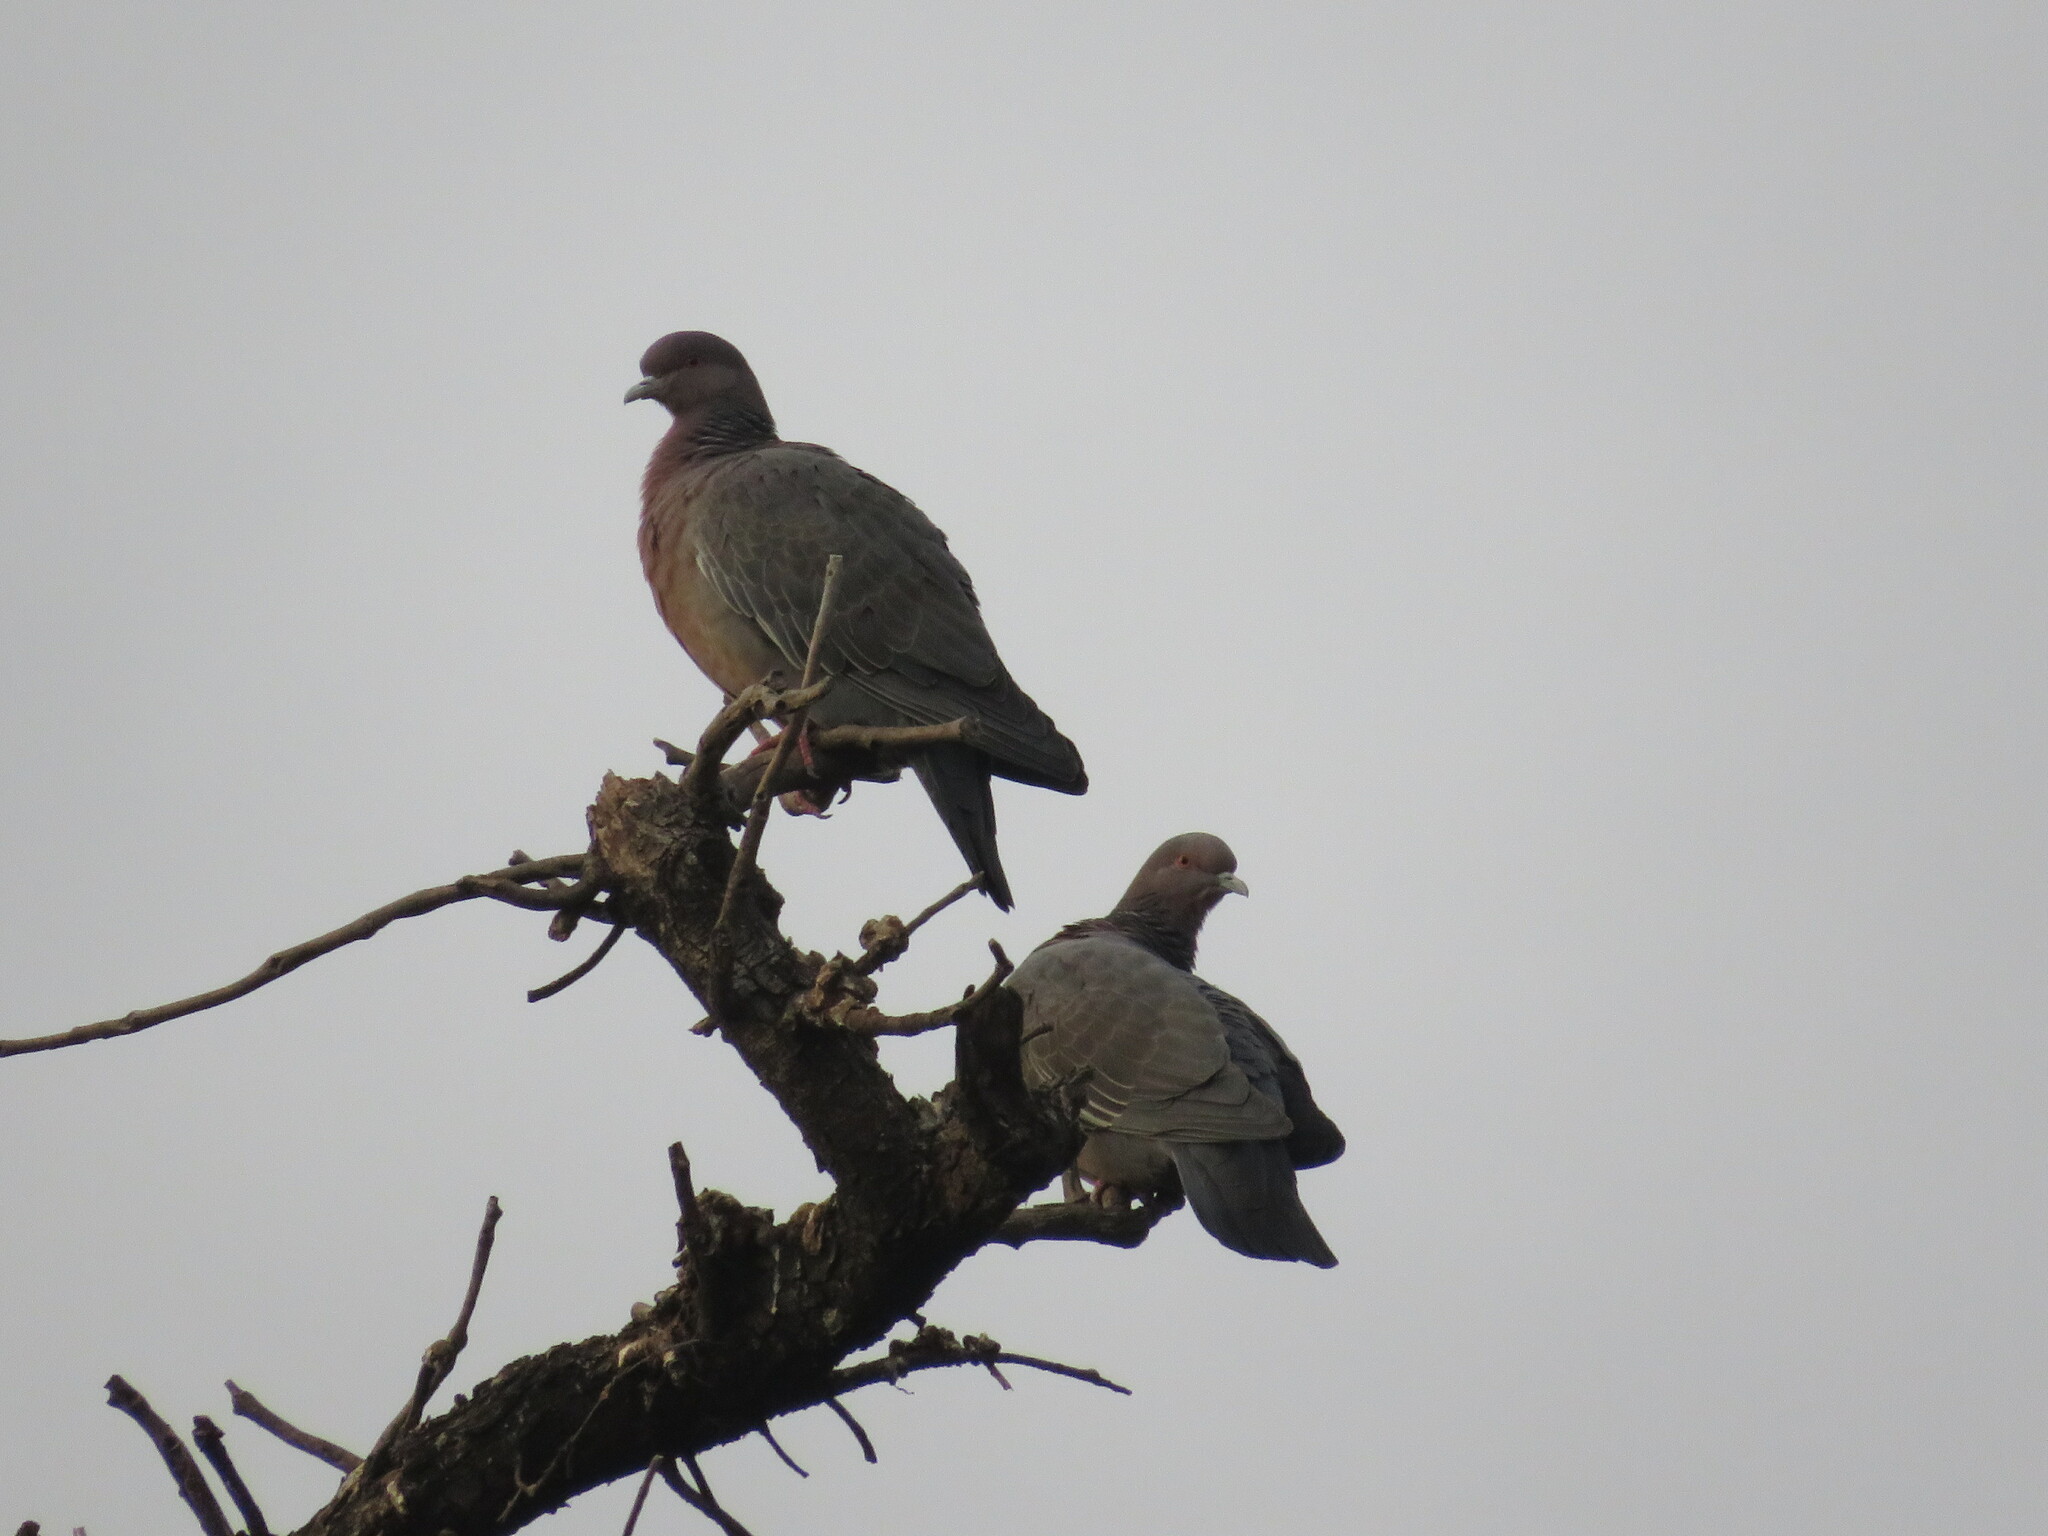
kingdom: Animalia
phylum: Chordata
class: Aves
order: Columbiformes
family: Columbidae
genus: Patagioenas
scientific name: Patagioenas picazuro
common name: Picazuro pigeon
